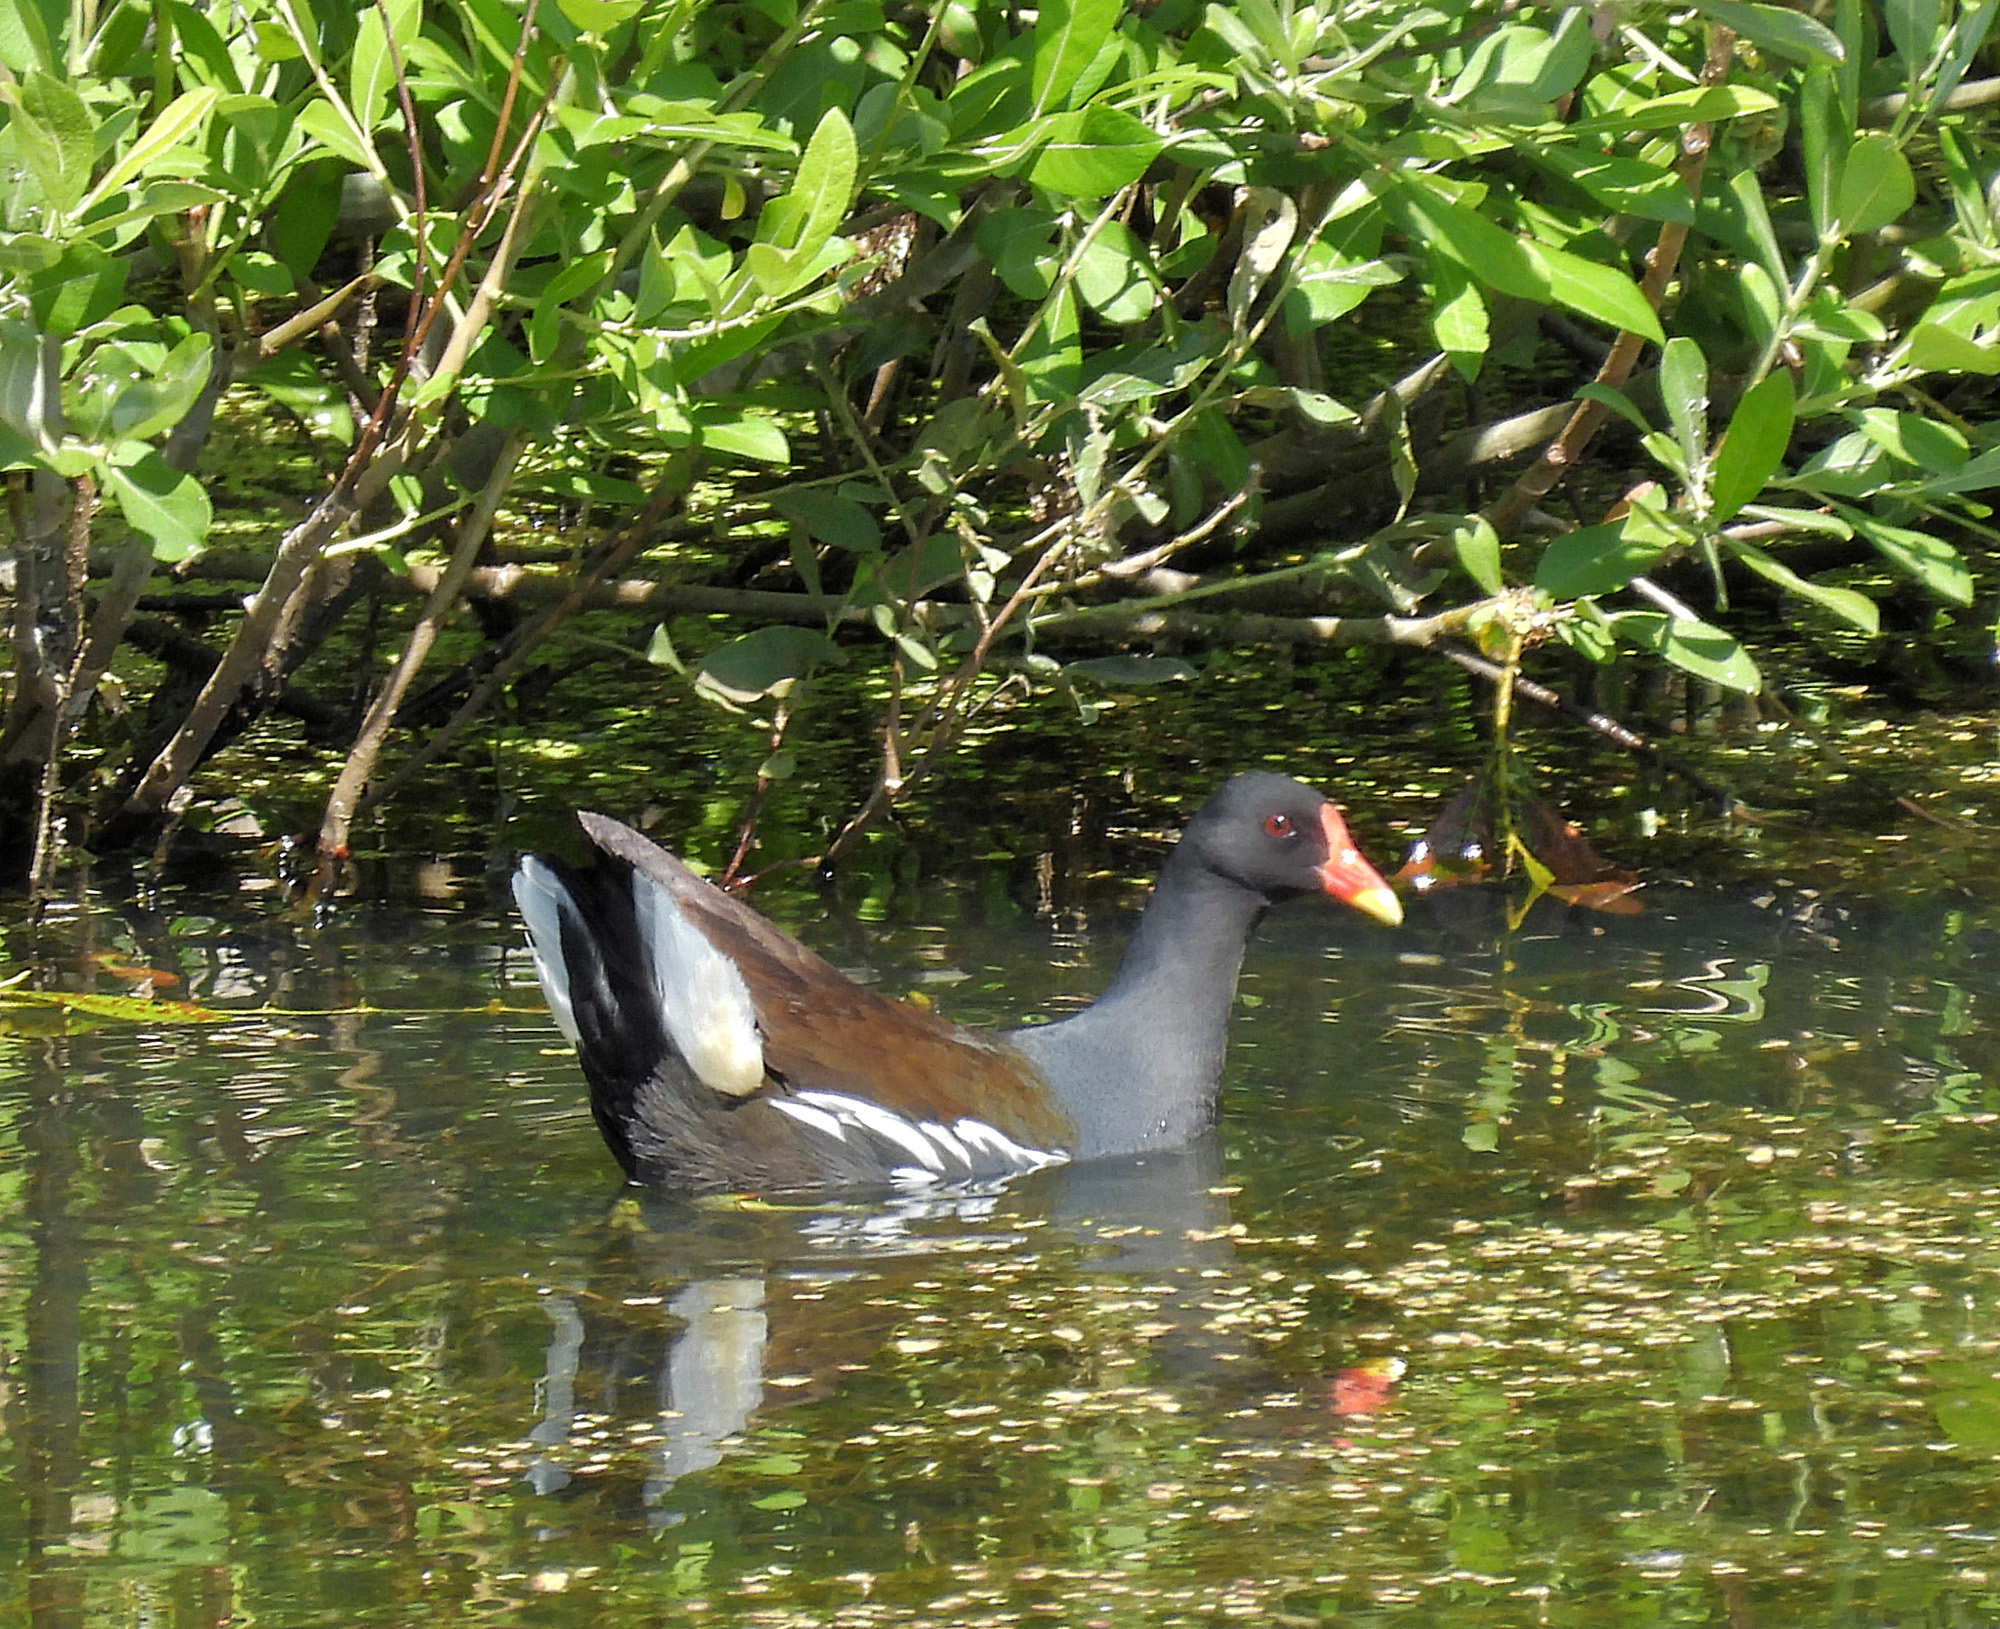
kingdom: Animalia
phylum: Chordata
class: Aves
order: Gruiformes
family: Rallidae
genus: Gallinula
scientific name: Gallinula chloropus
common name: Common moorhen
